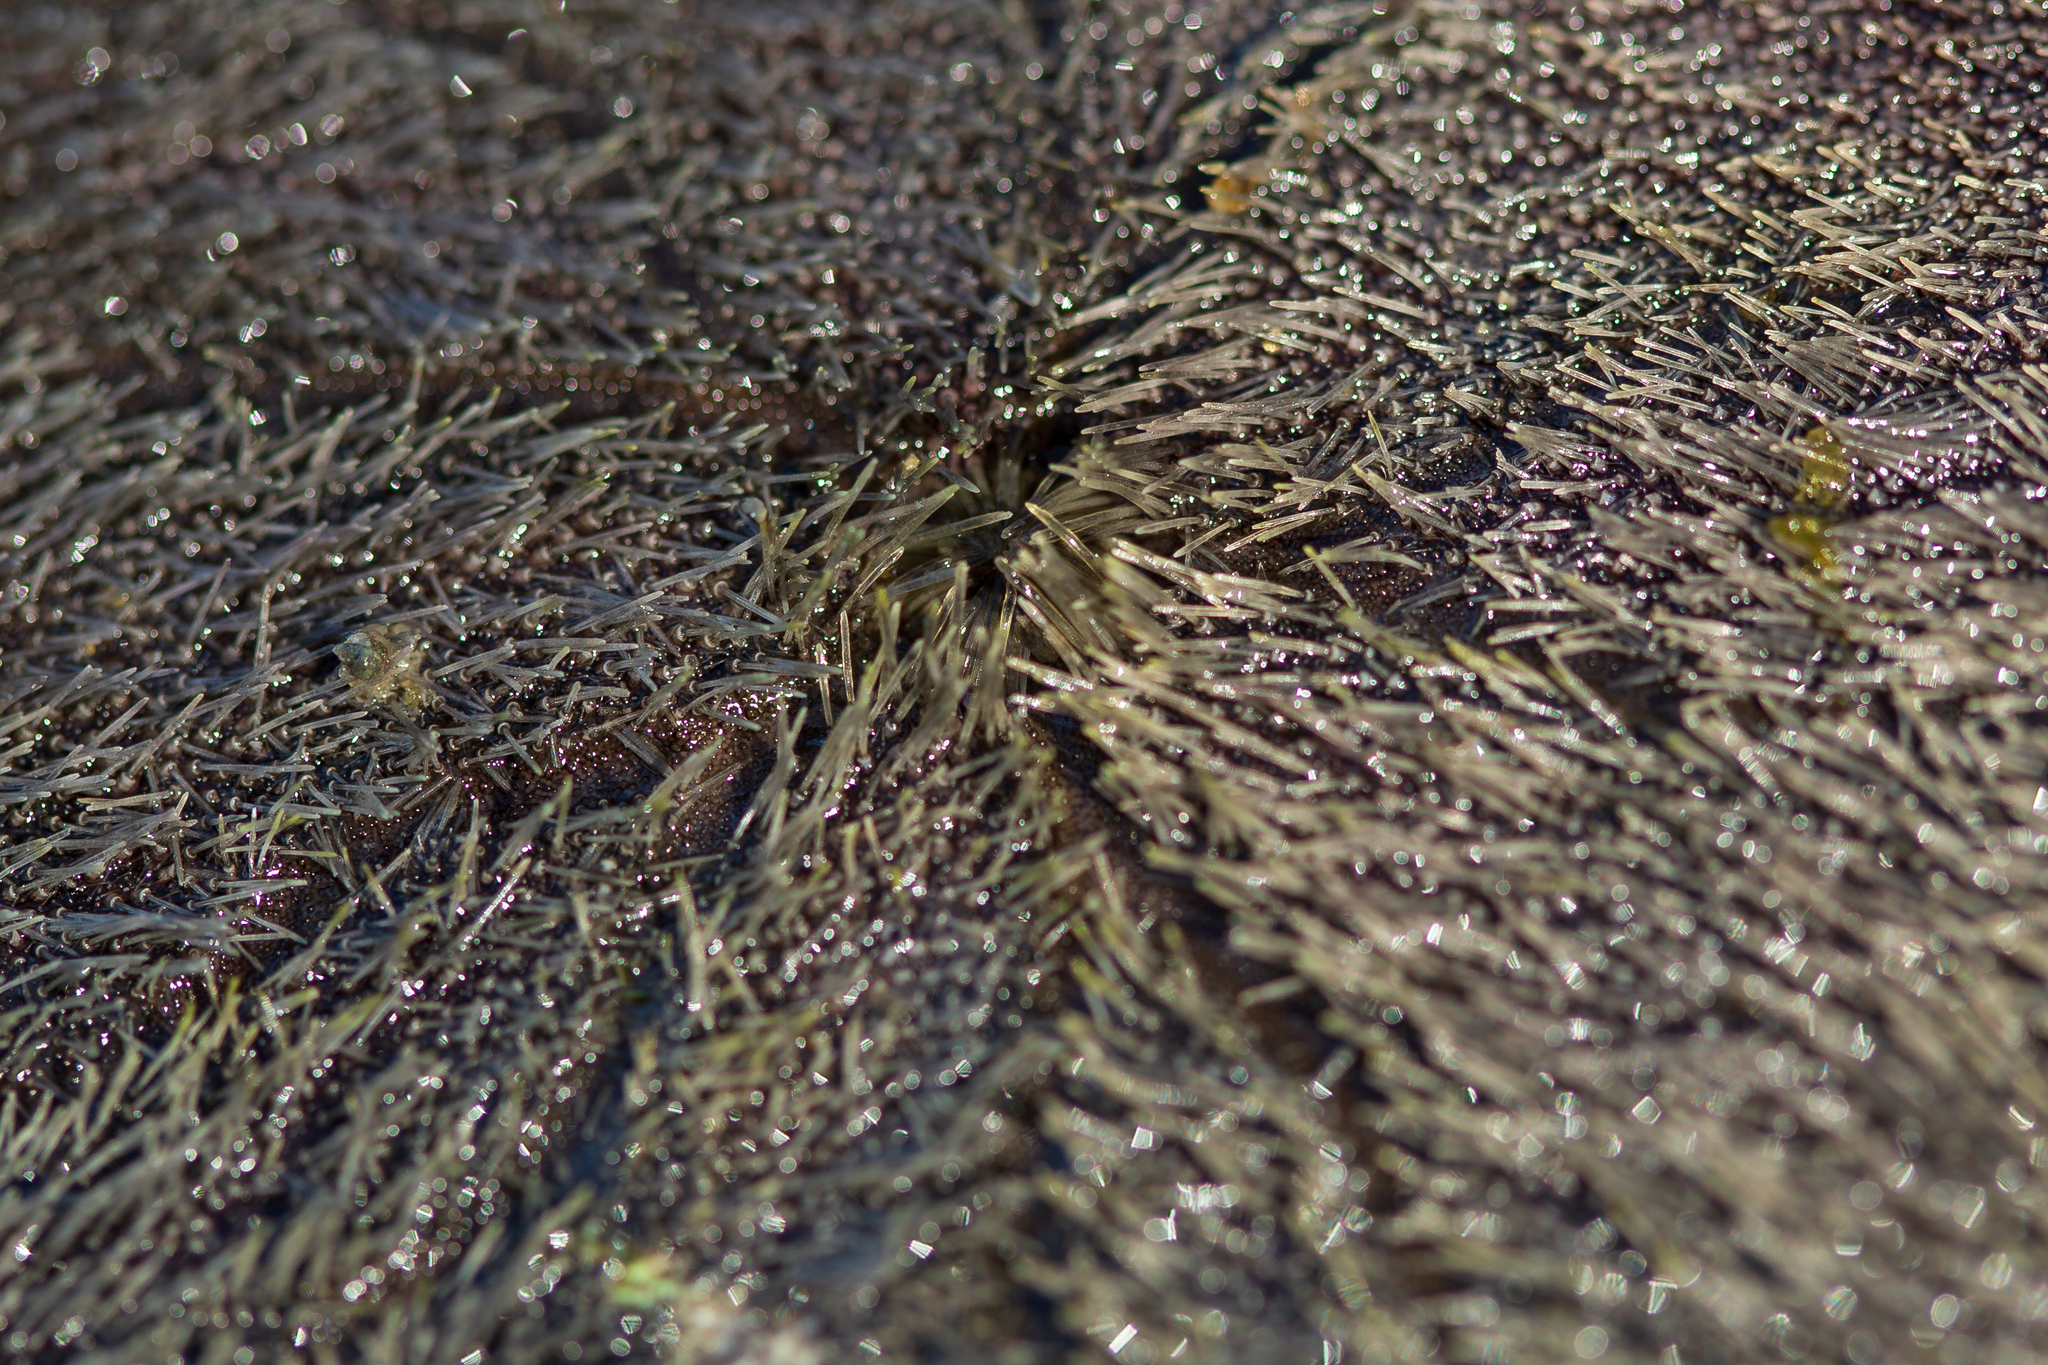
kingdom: Animalia
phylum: Echinodermata
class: Echinoidea
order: Echinolampadacea
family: Dendrasteridae
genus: Dendraster
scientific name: Dendraster excentricus
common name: Eccentric sand dollar sea urchin
